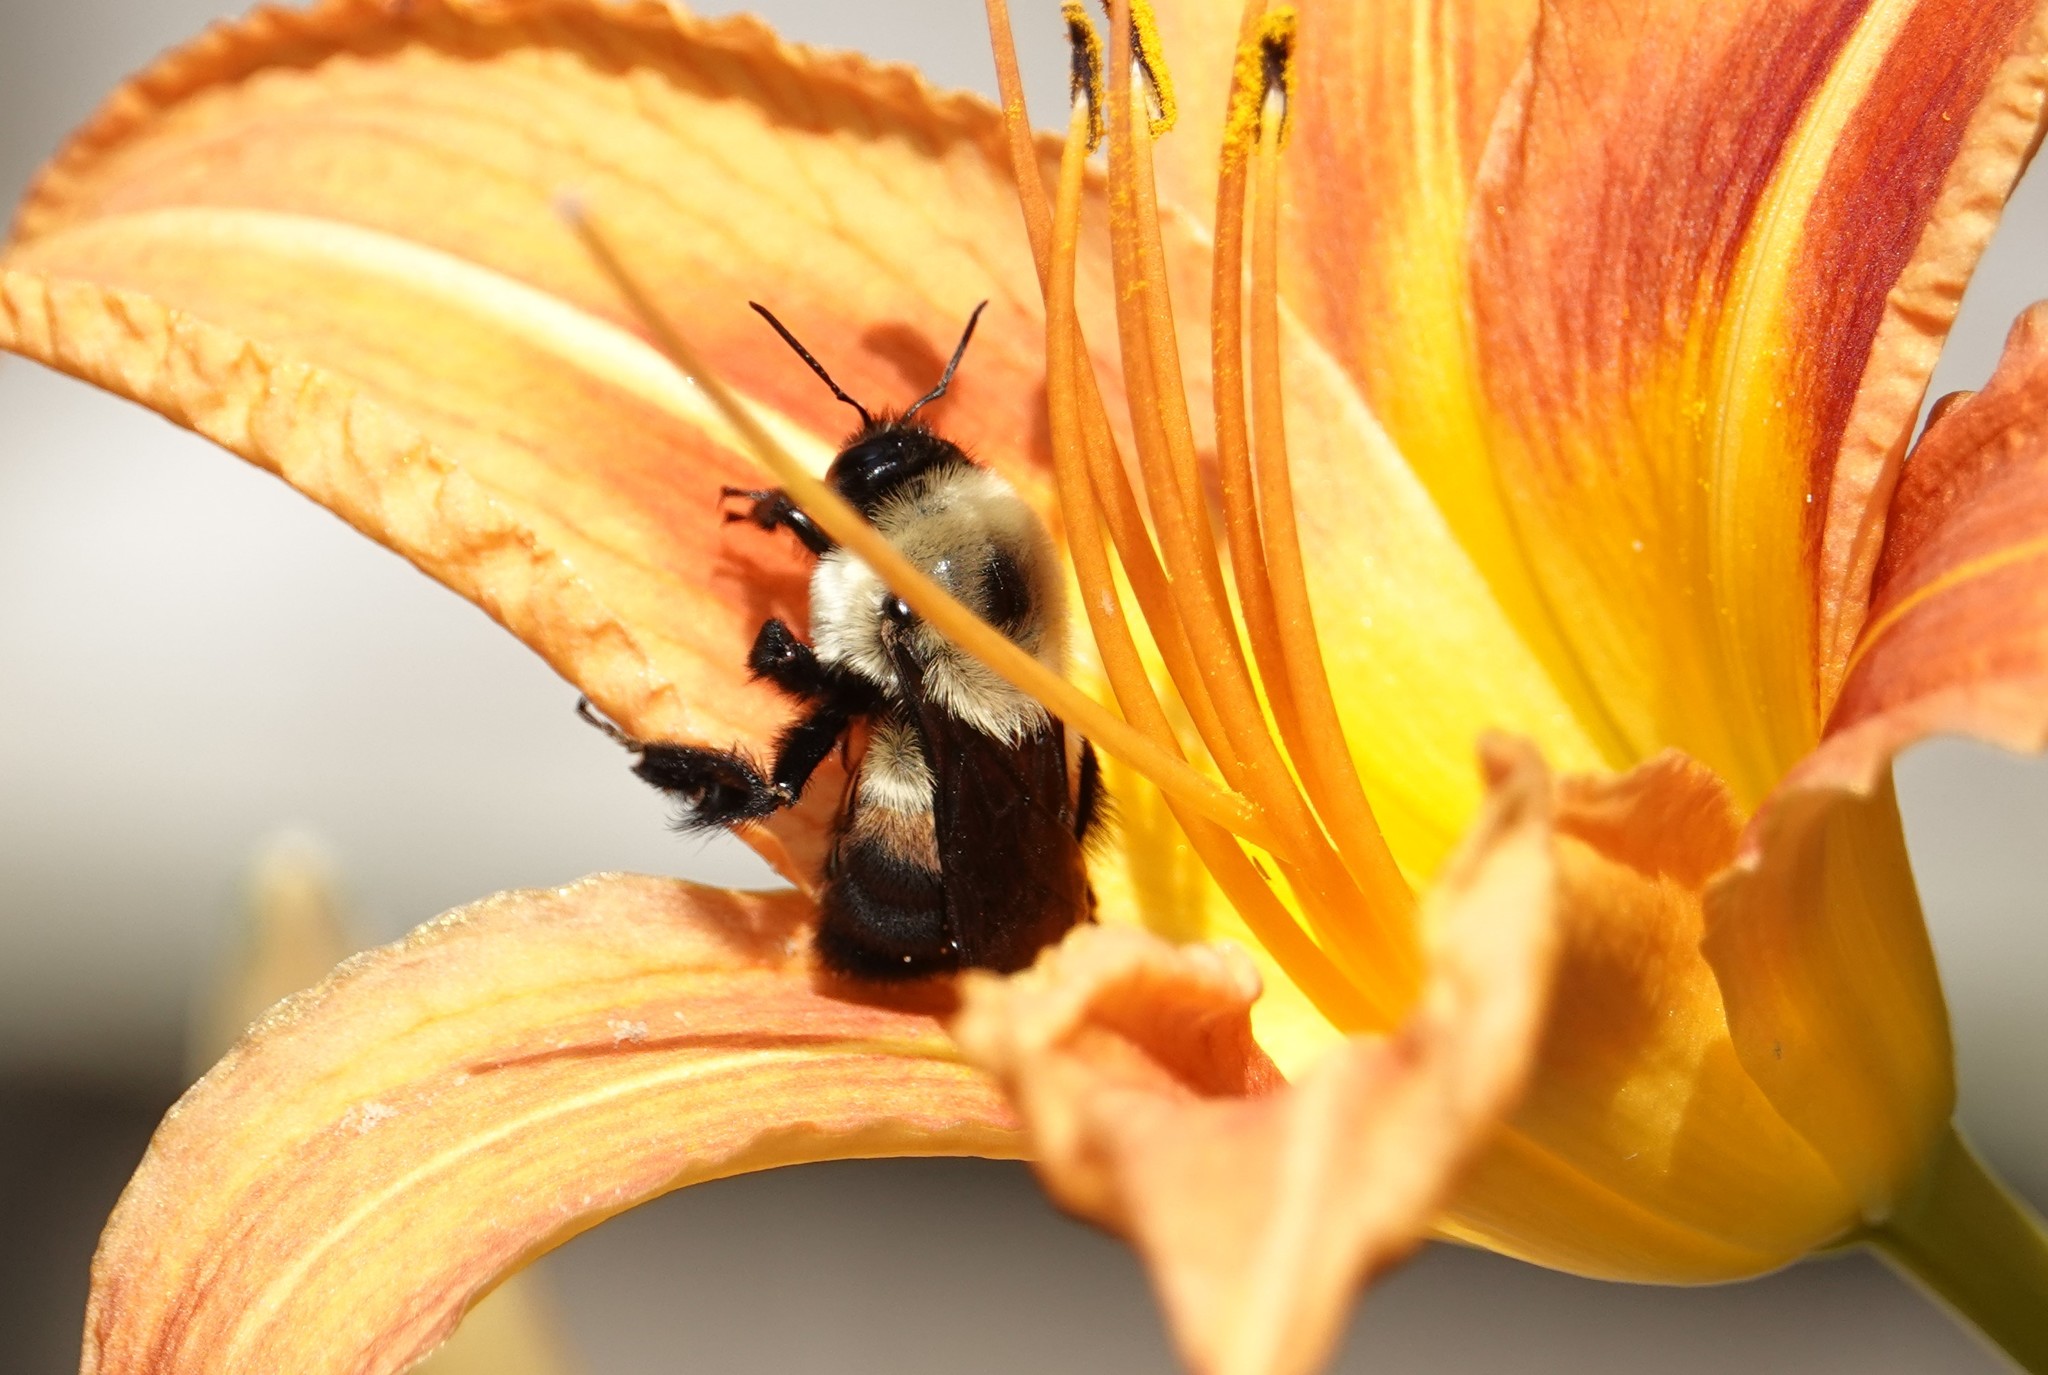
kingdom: Animalia
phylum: Arthropoda
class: Insecta
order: Hymenoptera
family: Apidae
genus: Bombus
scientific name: Bombus griseocollis
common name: Brown-belted bumble bee
